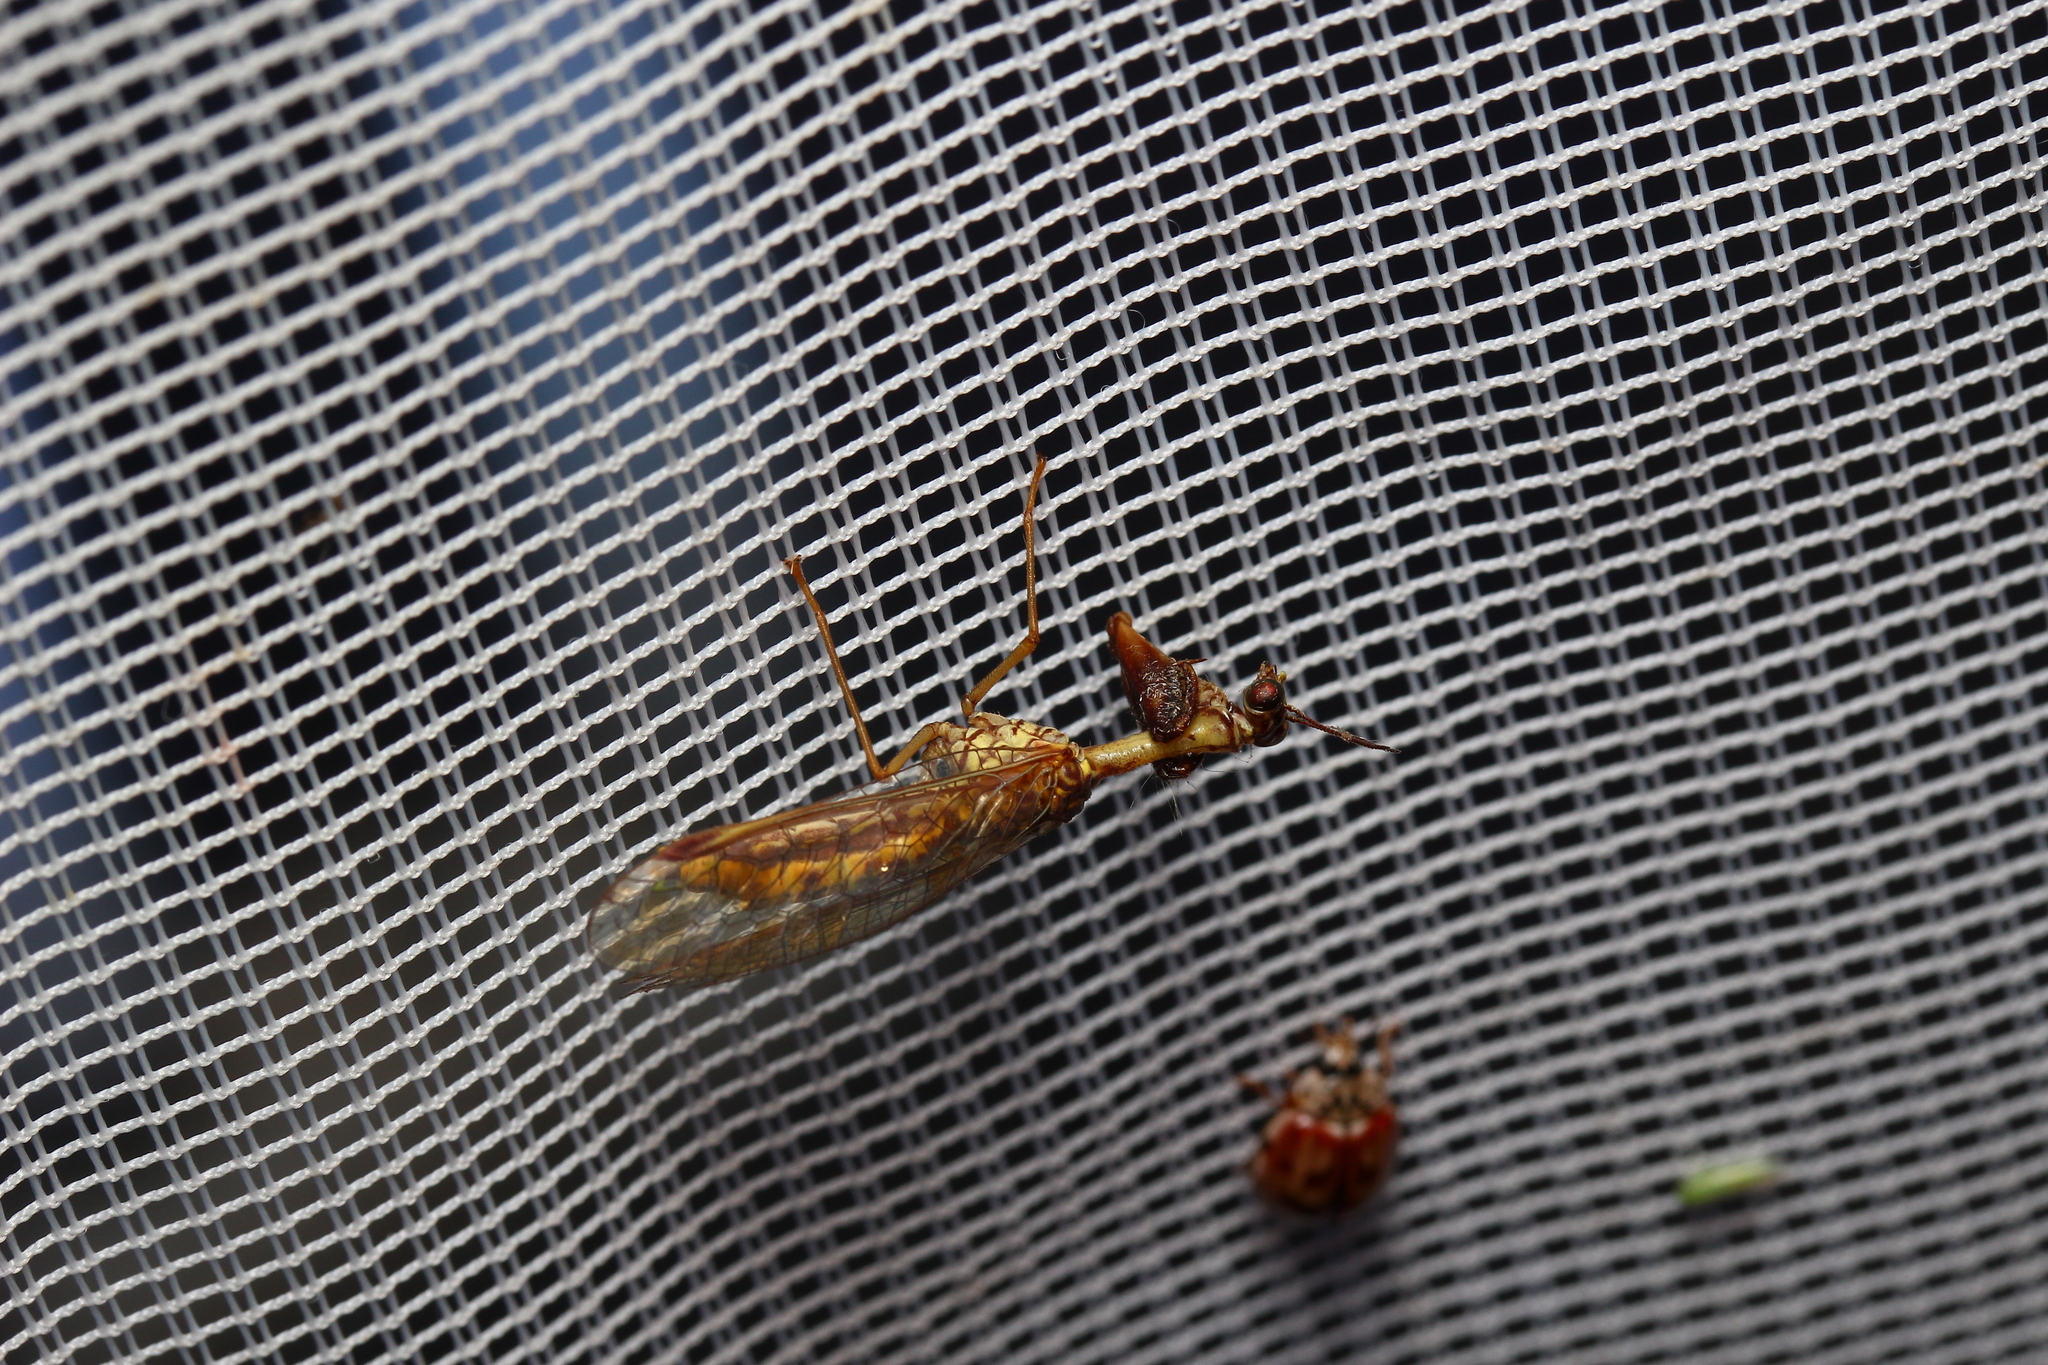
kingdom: Animalia
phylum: Arthropoda
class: Insecta
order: Neuroptera
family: Mantispidae
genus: Mantispa
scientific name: Mantispa styriaca
